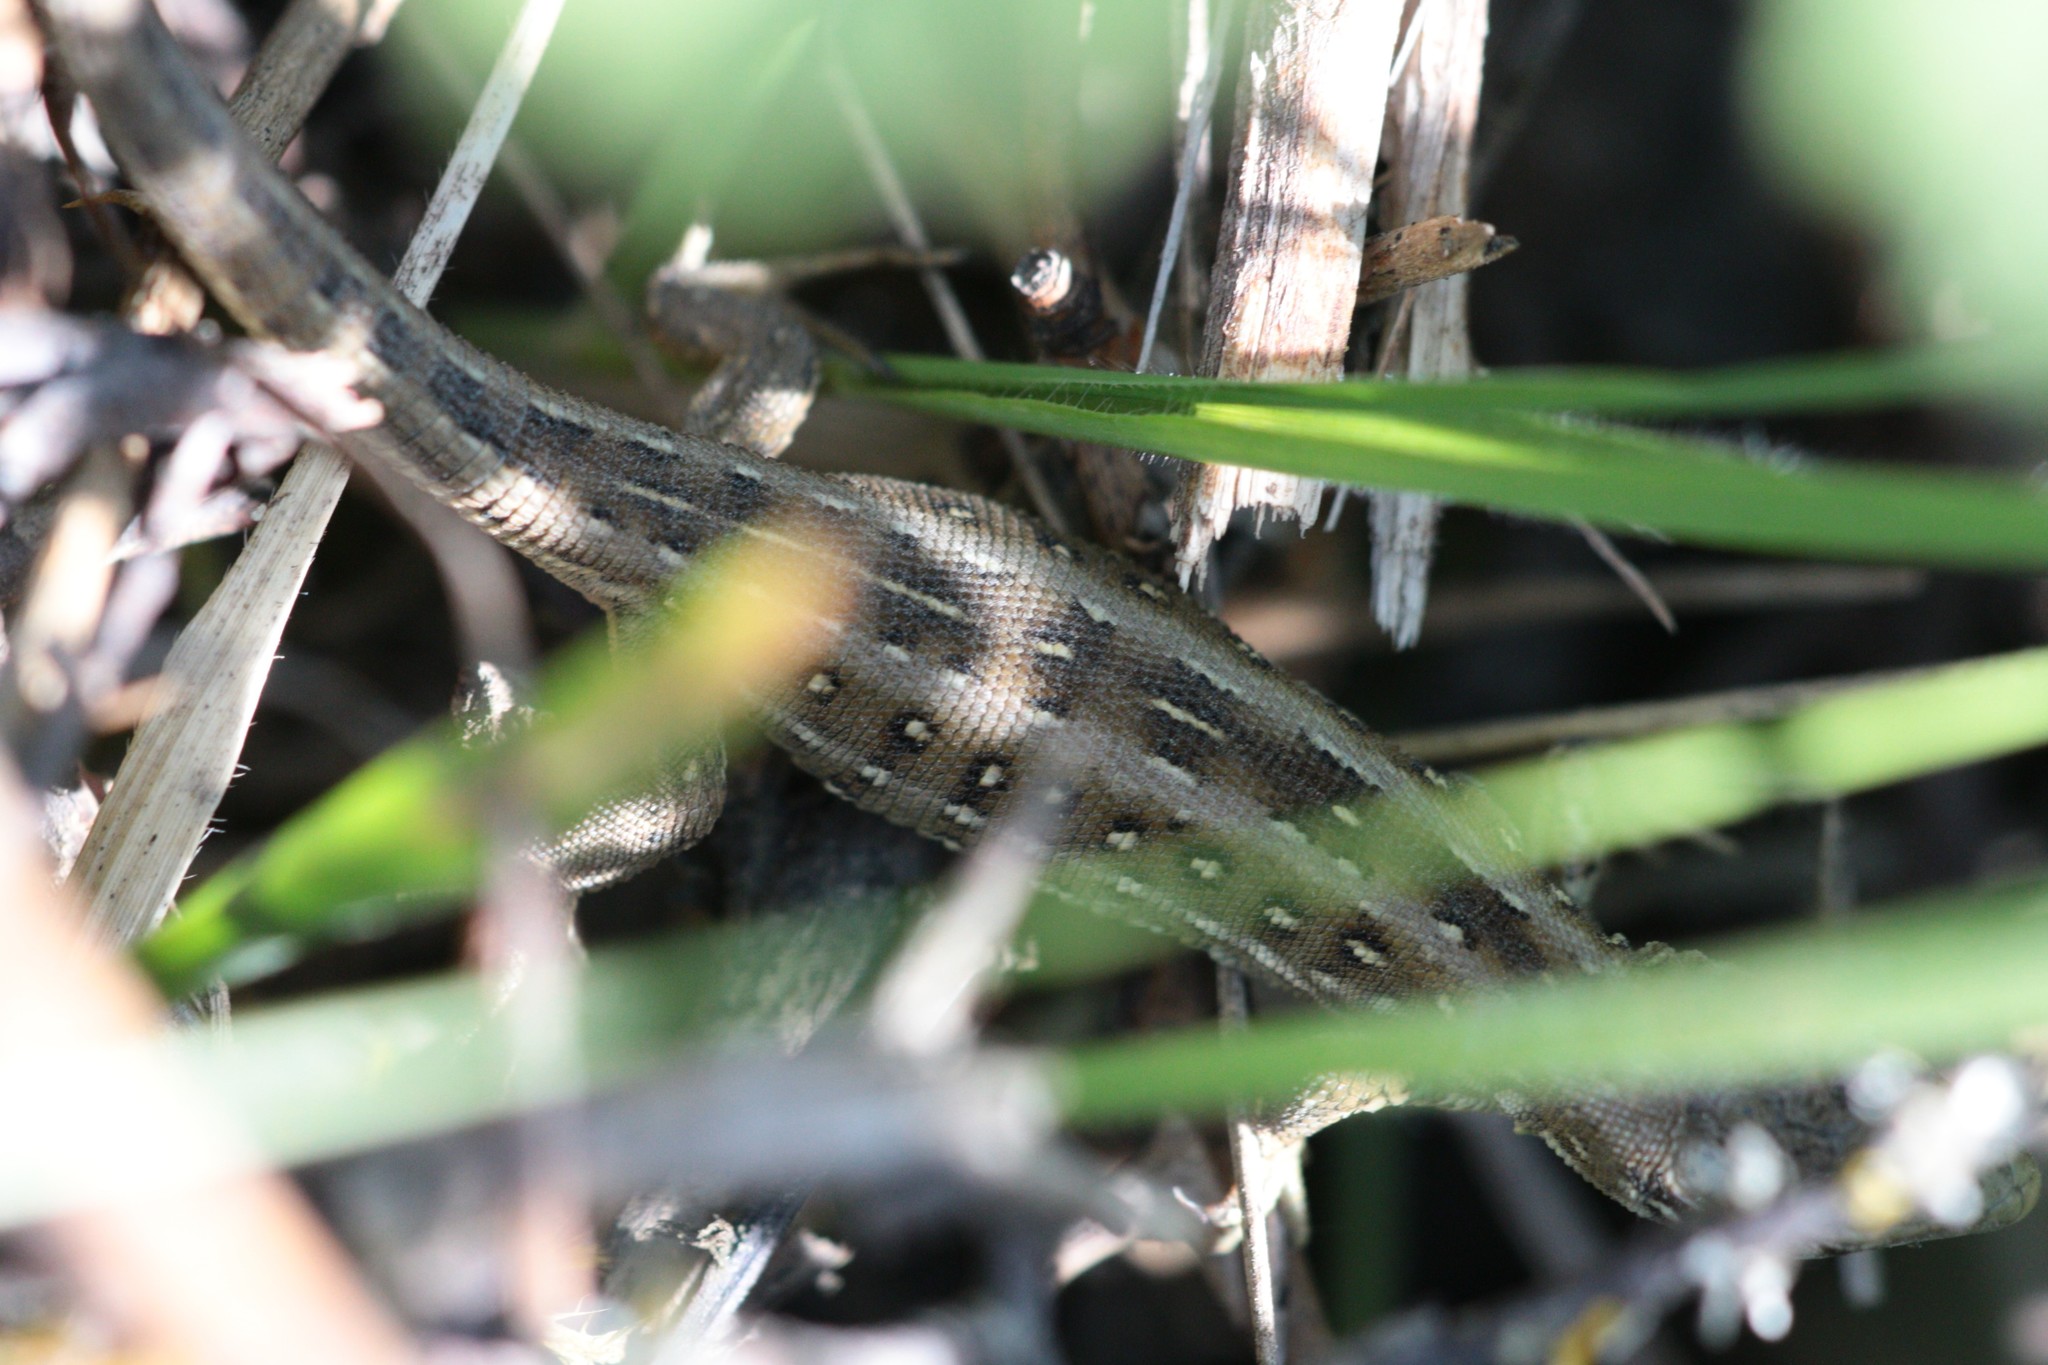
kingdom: Animalia
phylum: Chordata
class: Squamata
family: Lacertidae
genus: Lacerta
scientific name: Lacerta agilis
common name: Sand lizard
